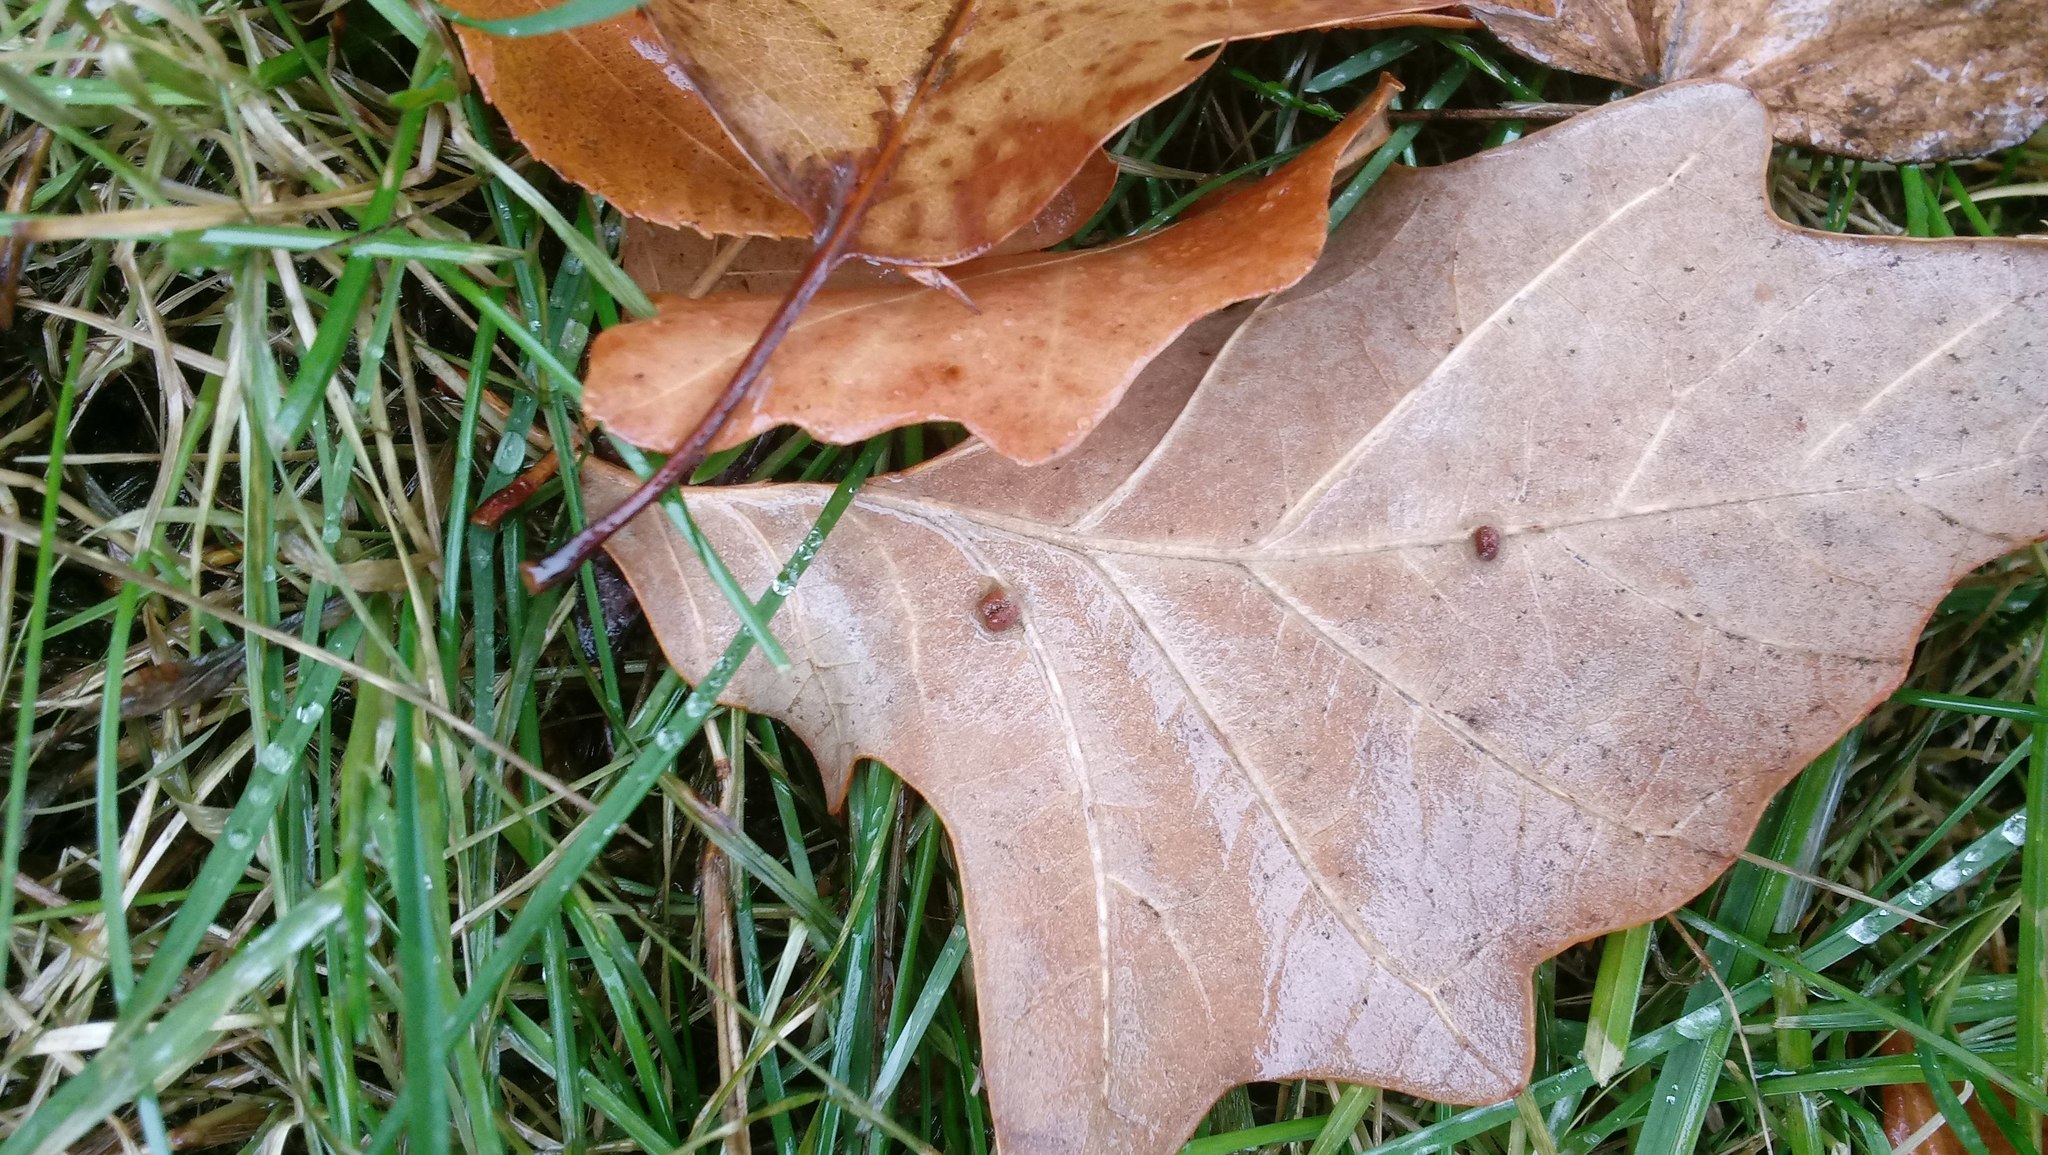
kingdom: Animalia
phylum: Arthropoda
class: Insecta
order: Hymenoptera
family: Cynipidae
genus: Andricus
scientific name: Andricus Druon ignotum
